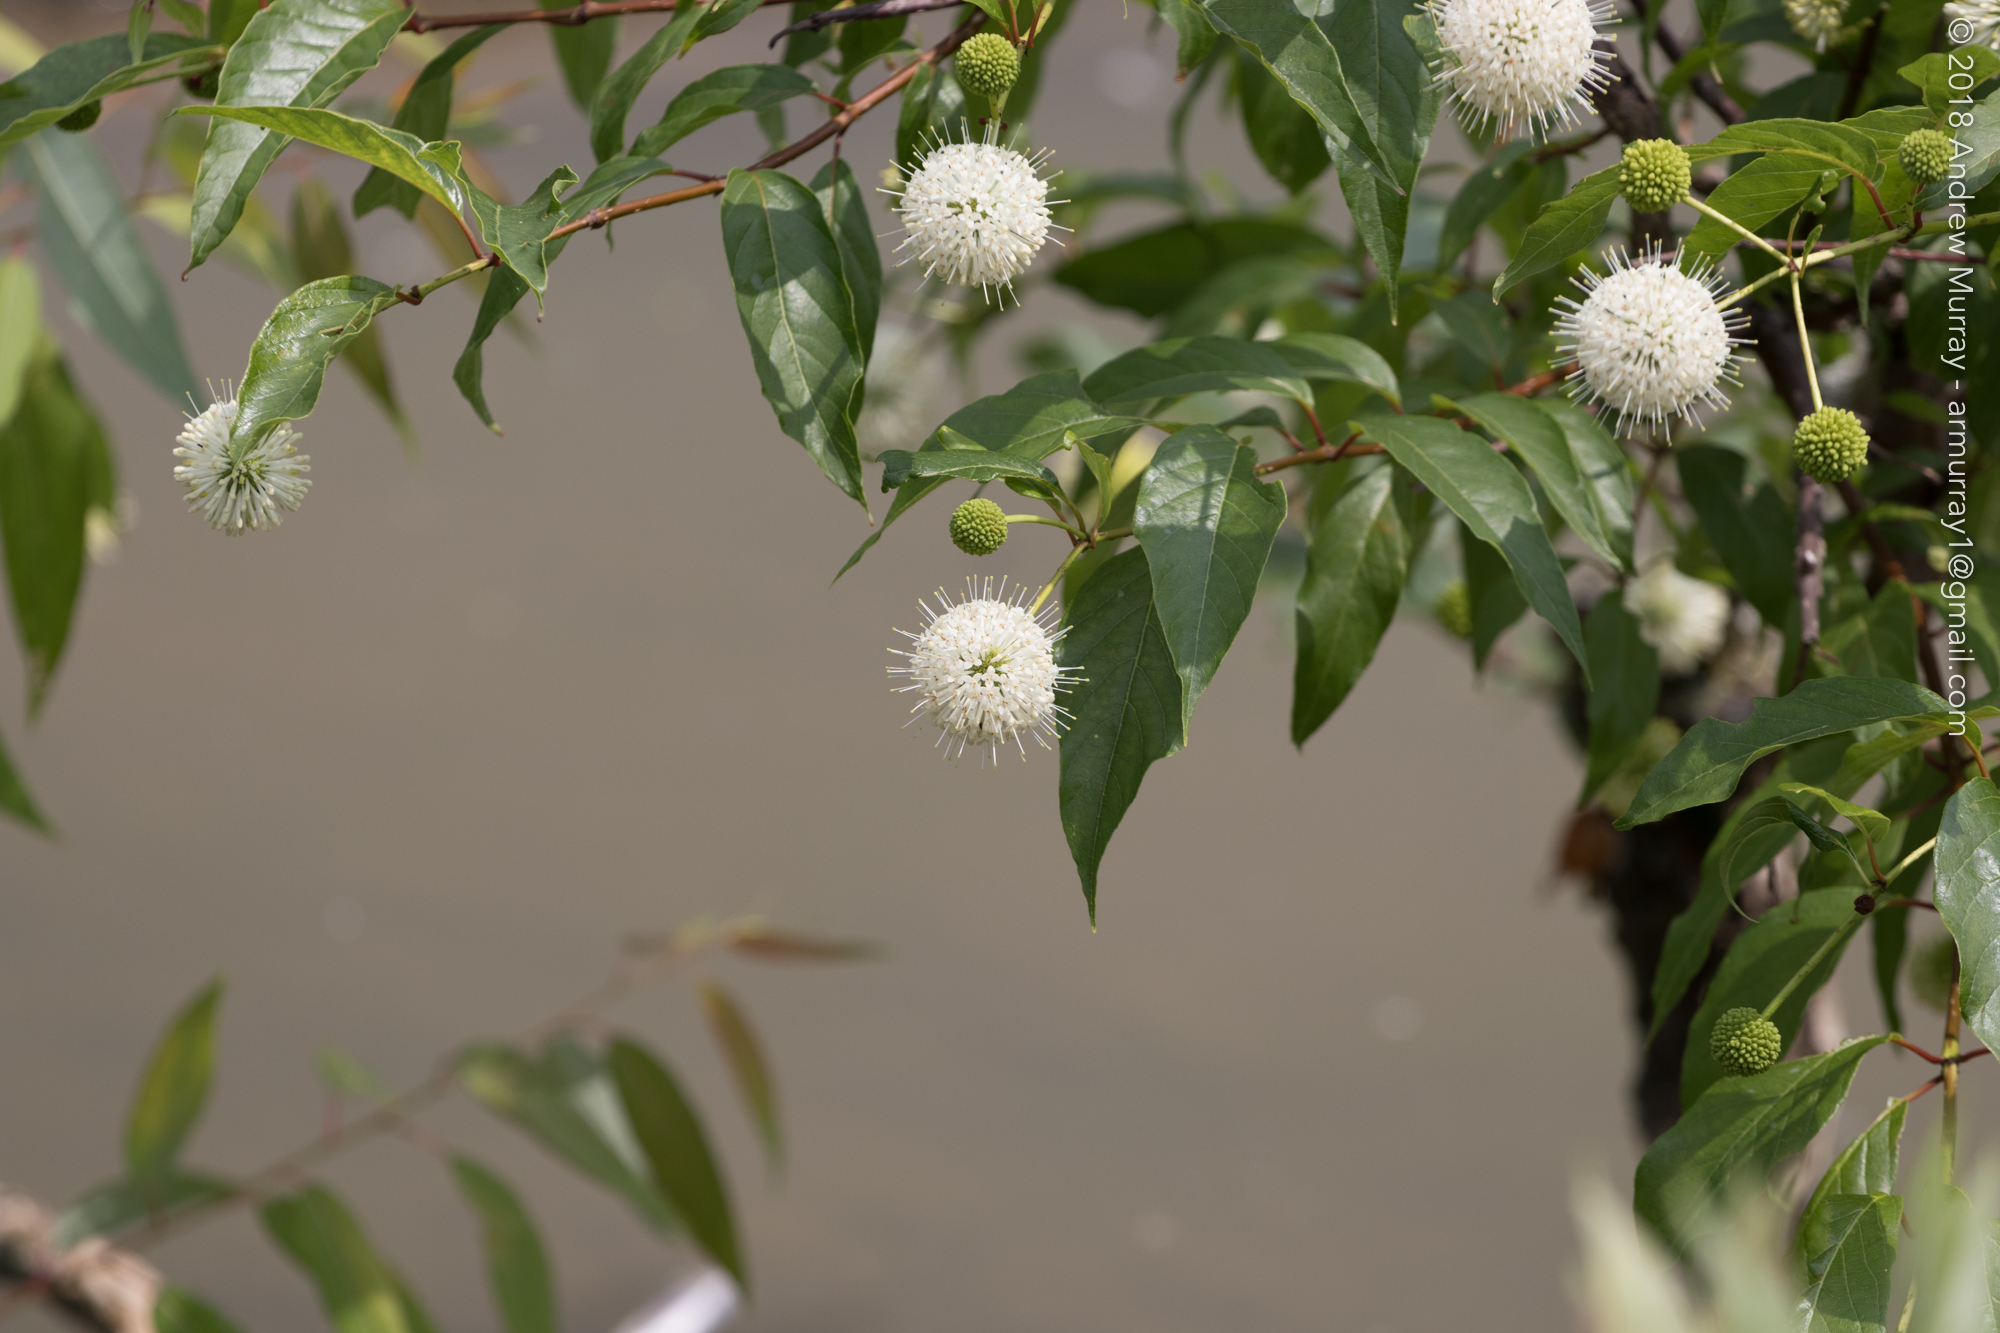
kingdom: Plantae
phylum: Tracheophyta
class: Magnoliopsida
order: Gentianales
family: Rubiaceae
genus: Cephalanthus
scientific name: Cephalanthus occidentalis
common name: Button-willow
